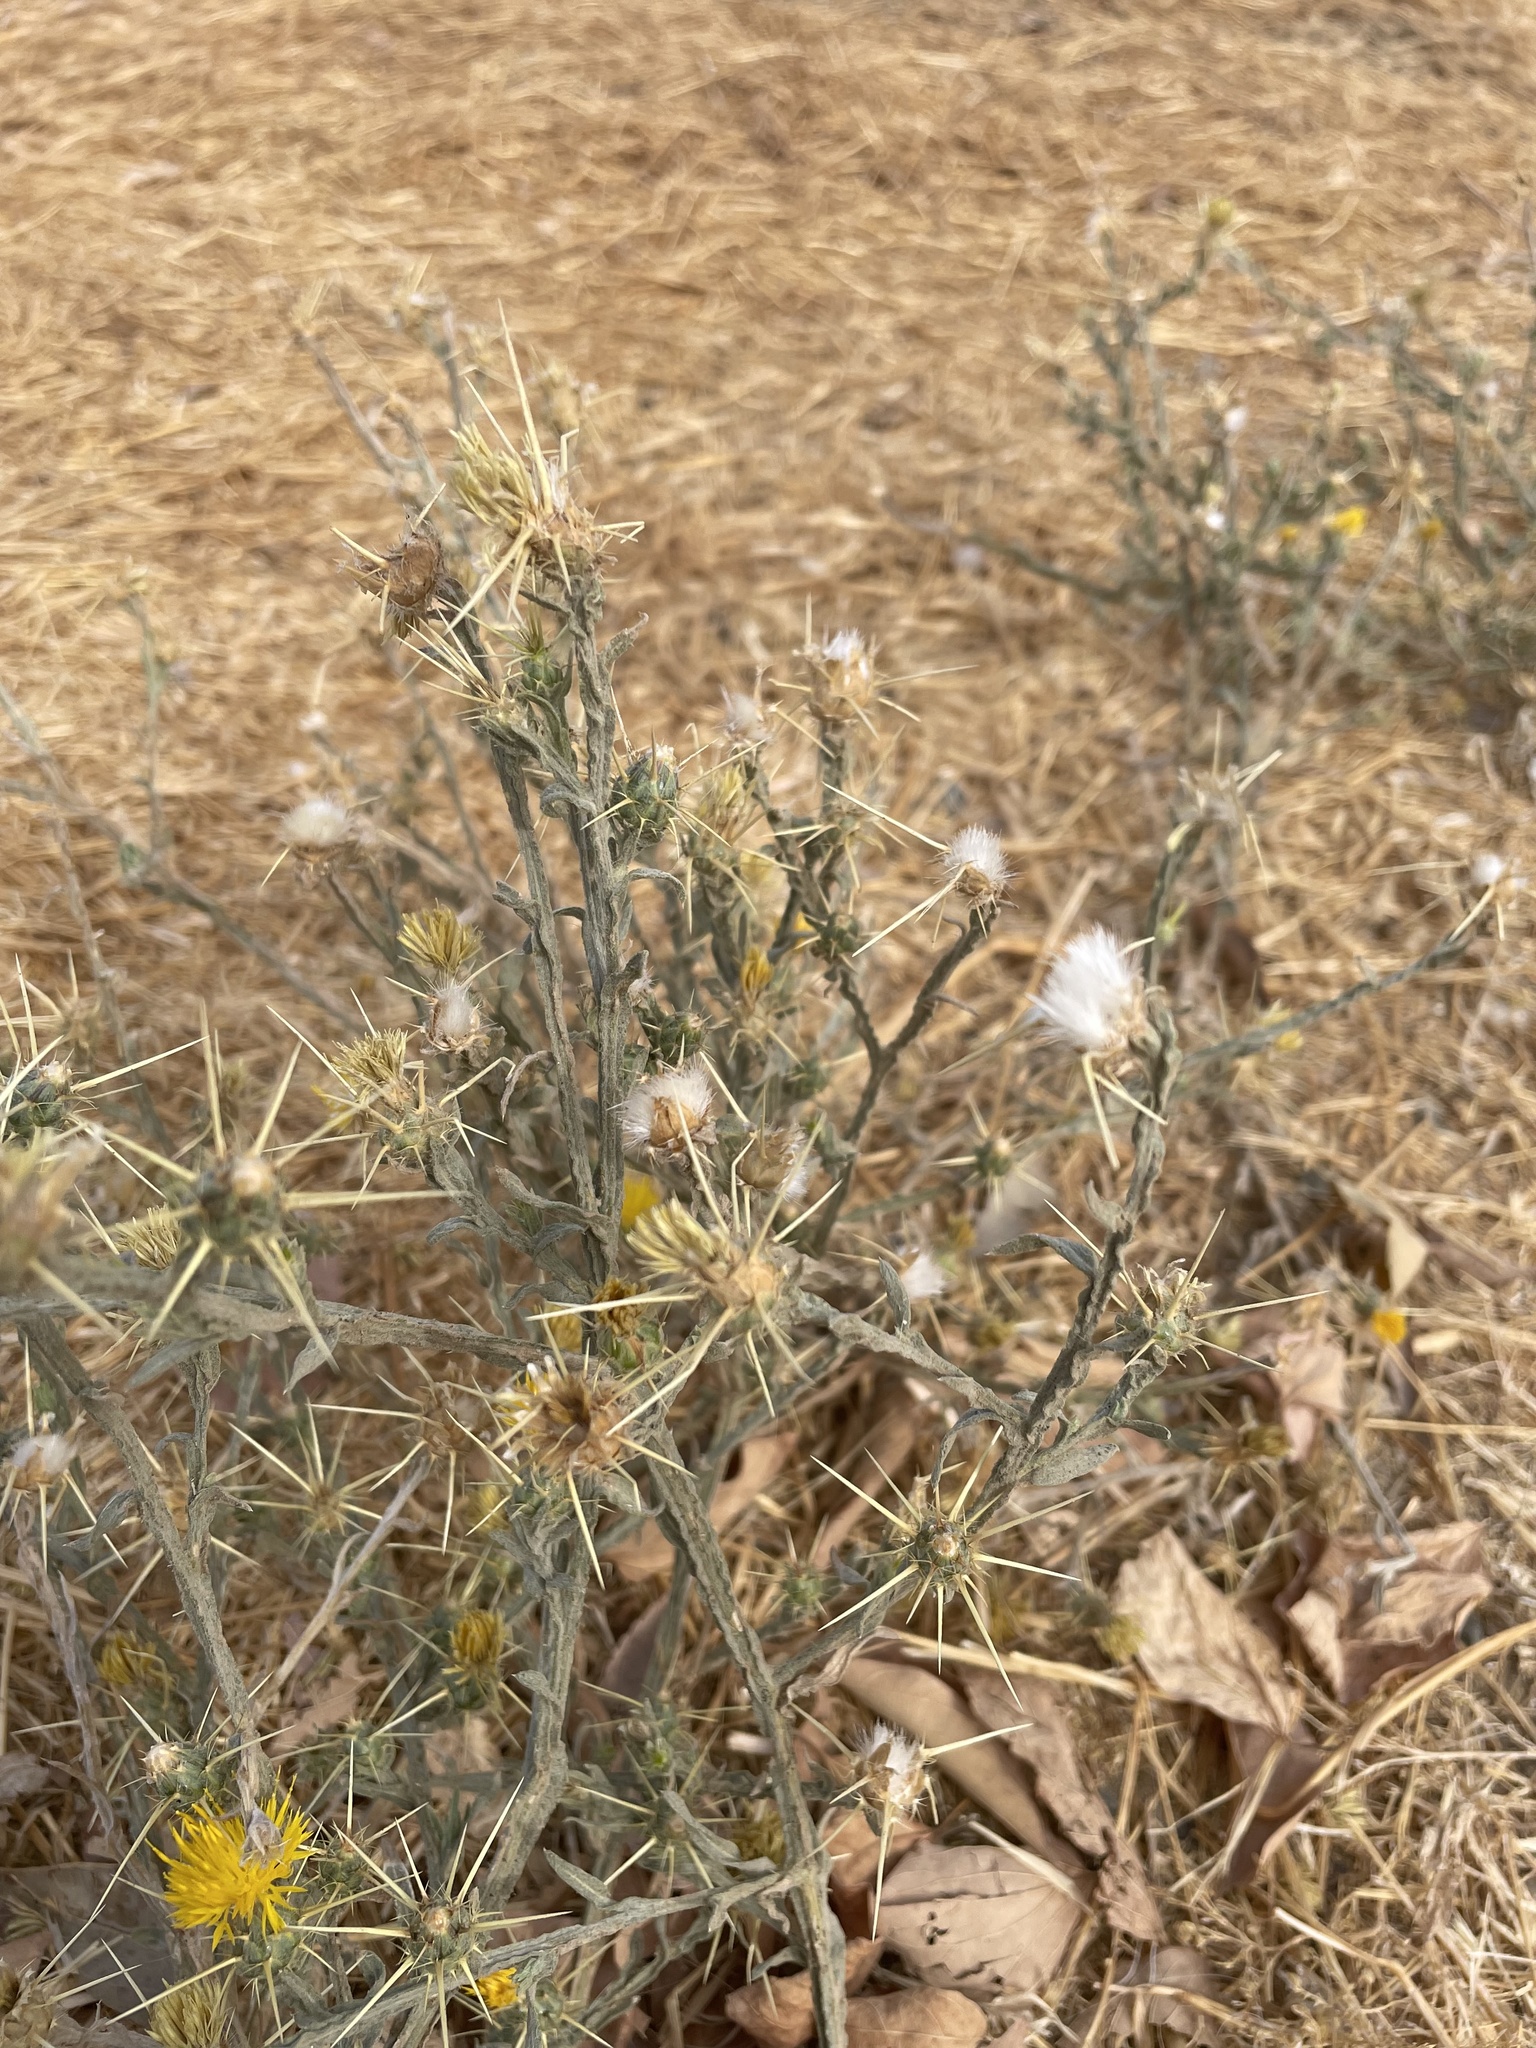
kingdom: Plantae
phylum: Tracheophyta
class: Magnoliopsida
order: Asterales
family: Asteraceae
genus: Centaurea
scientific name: Centaurea solstitialis
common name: Yellow star-thistle
